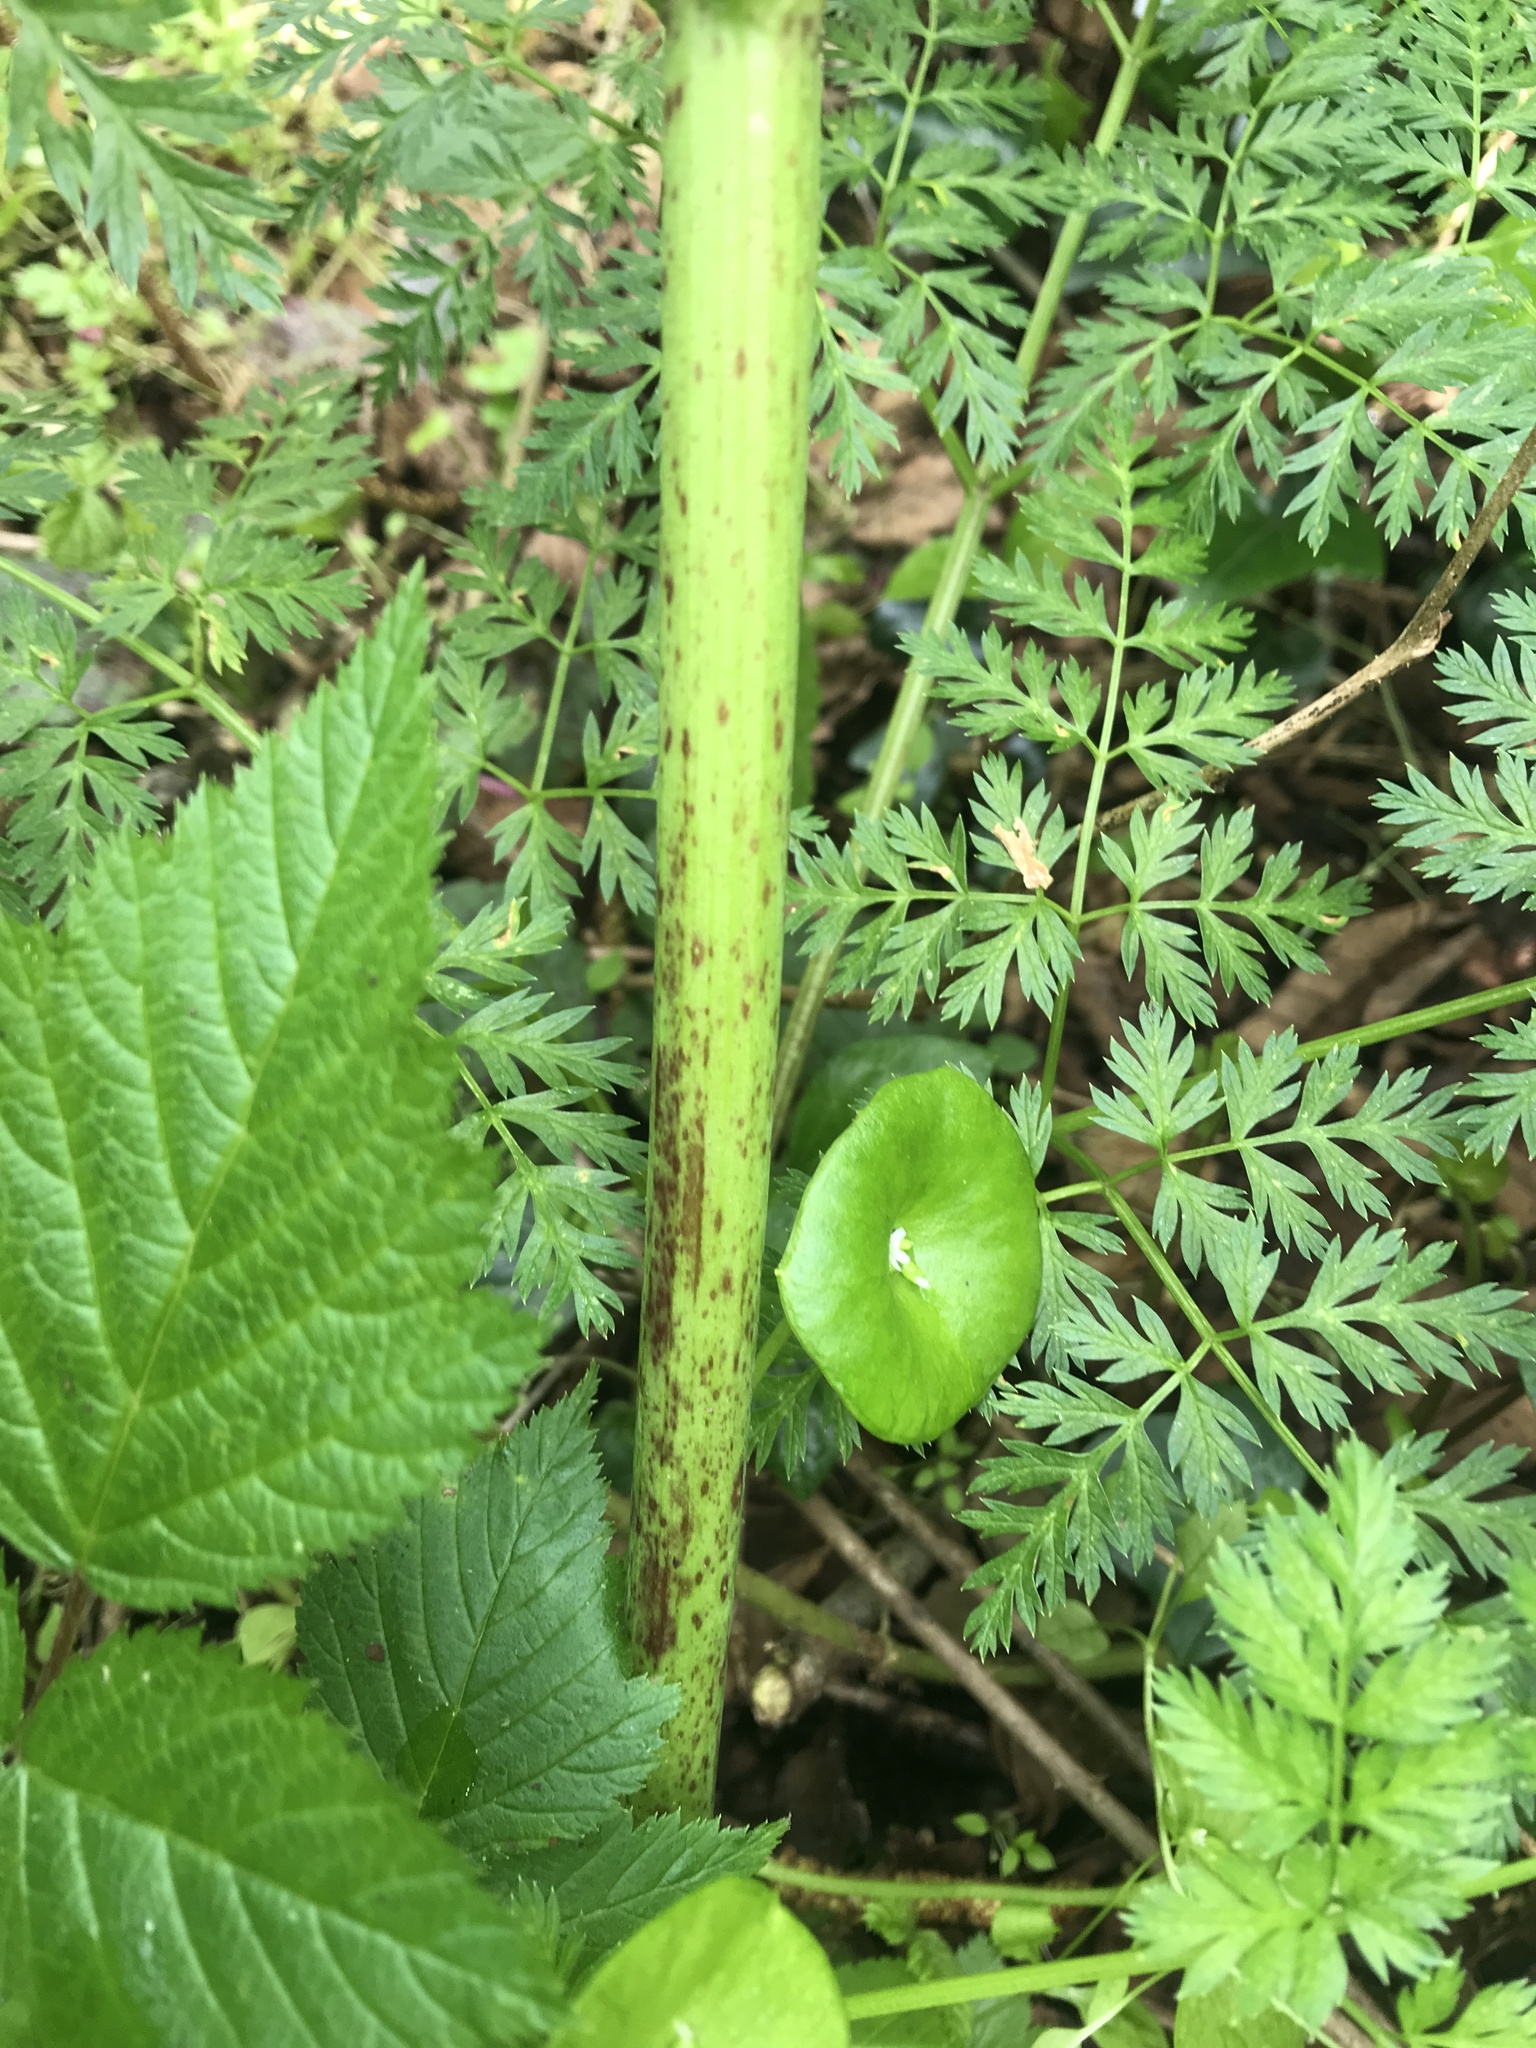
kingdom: Plantae
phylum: Tracheophyta
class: Magnoliopsida
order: Apiales
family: Apiaceae
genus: Conium
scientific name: Conium maculatum
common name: Hemlock
